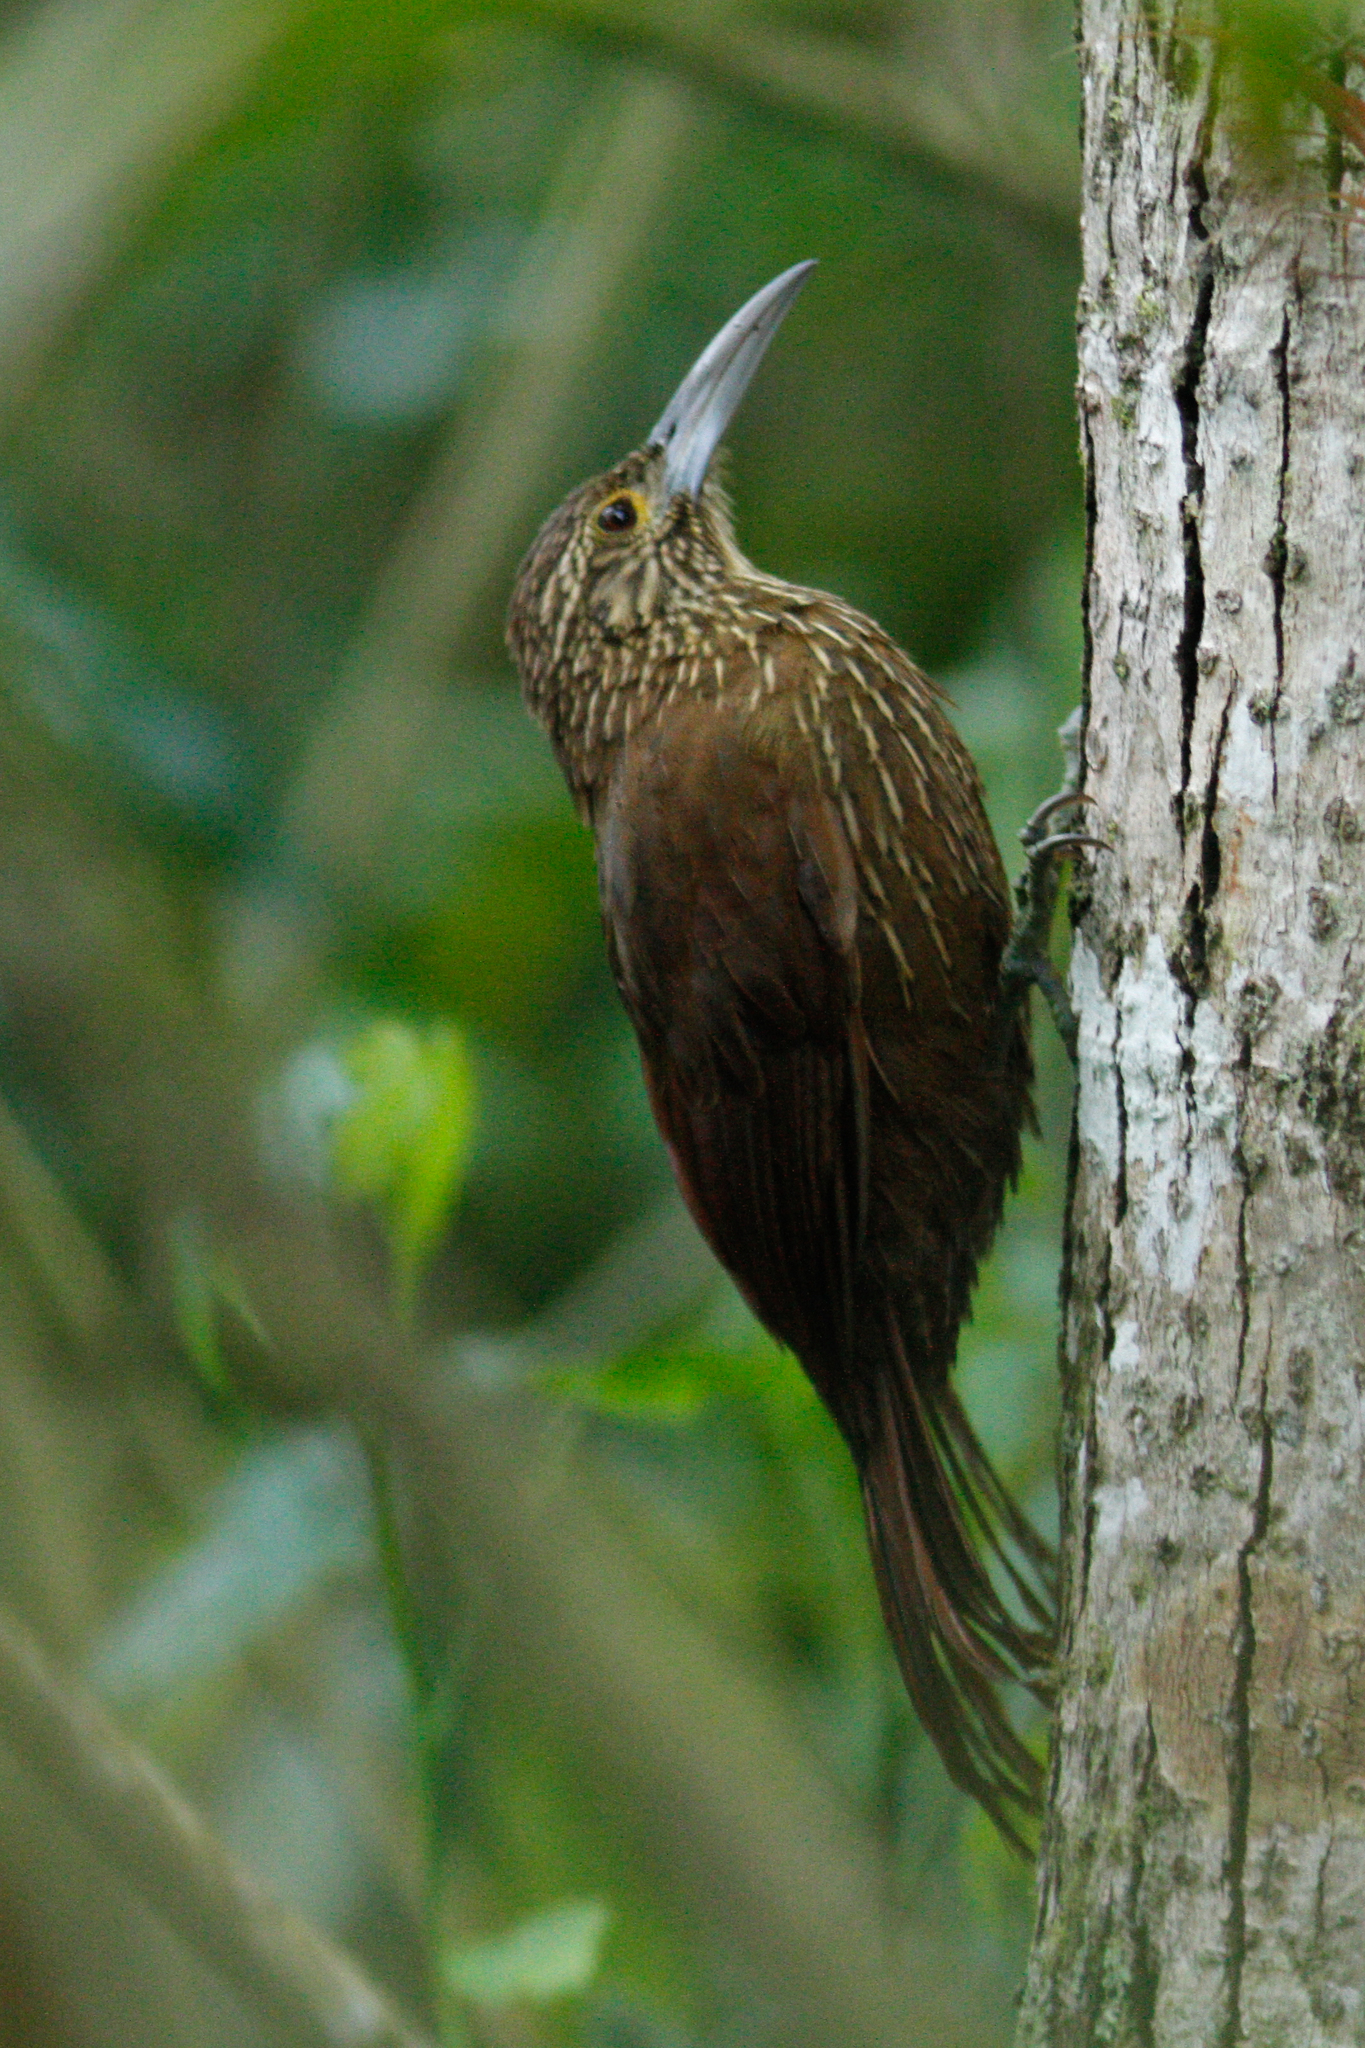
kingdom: Animalia
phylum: Chordata
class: Aves
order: Passeriformes
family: Furnariidae
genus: Xiphocolaptes
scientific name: Xiphocolaptes promeropirhynchus
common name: Strong-billed woodcreeper
